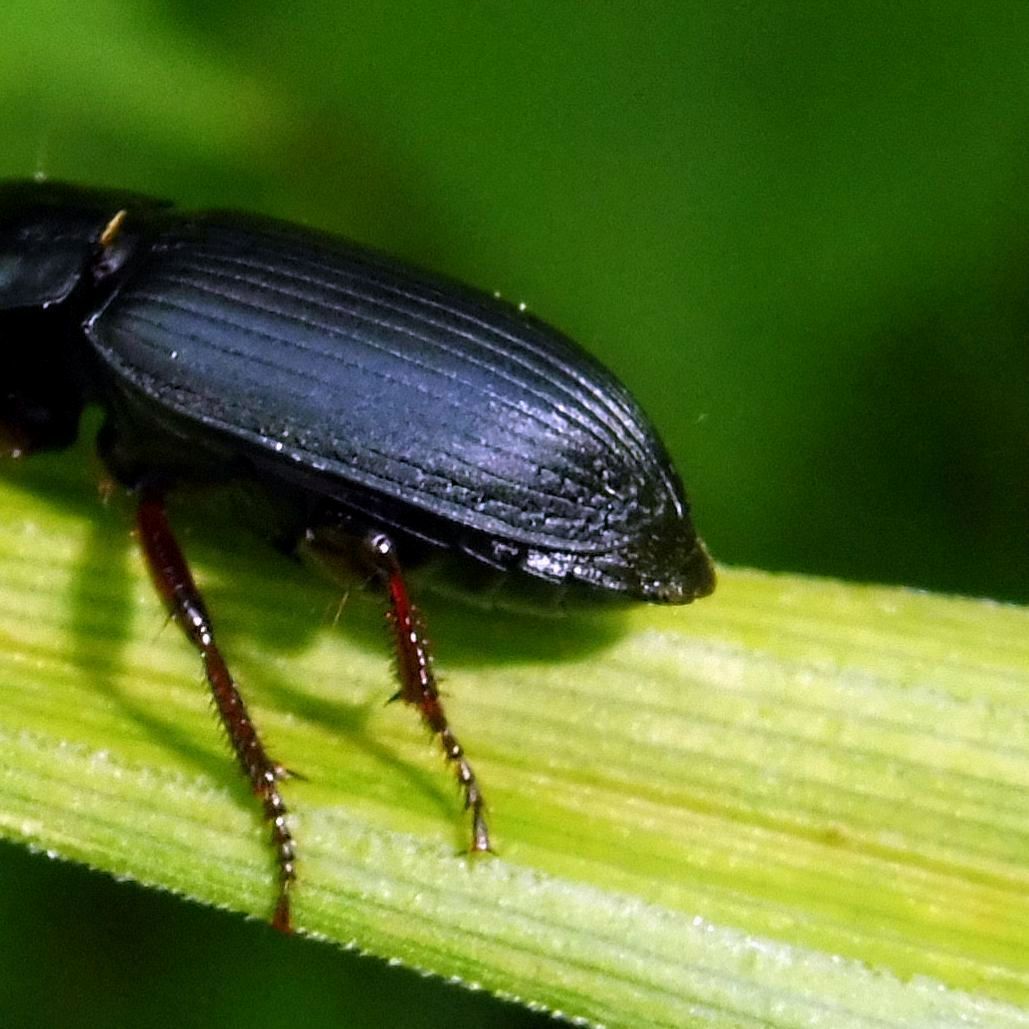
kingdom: Animalia
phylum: Arthropoda
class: Insecta
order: Coleoptera
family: Carabidae
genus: Harpalus
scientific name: Harpalus rubripes
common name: Red-legged harp ground beetle
